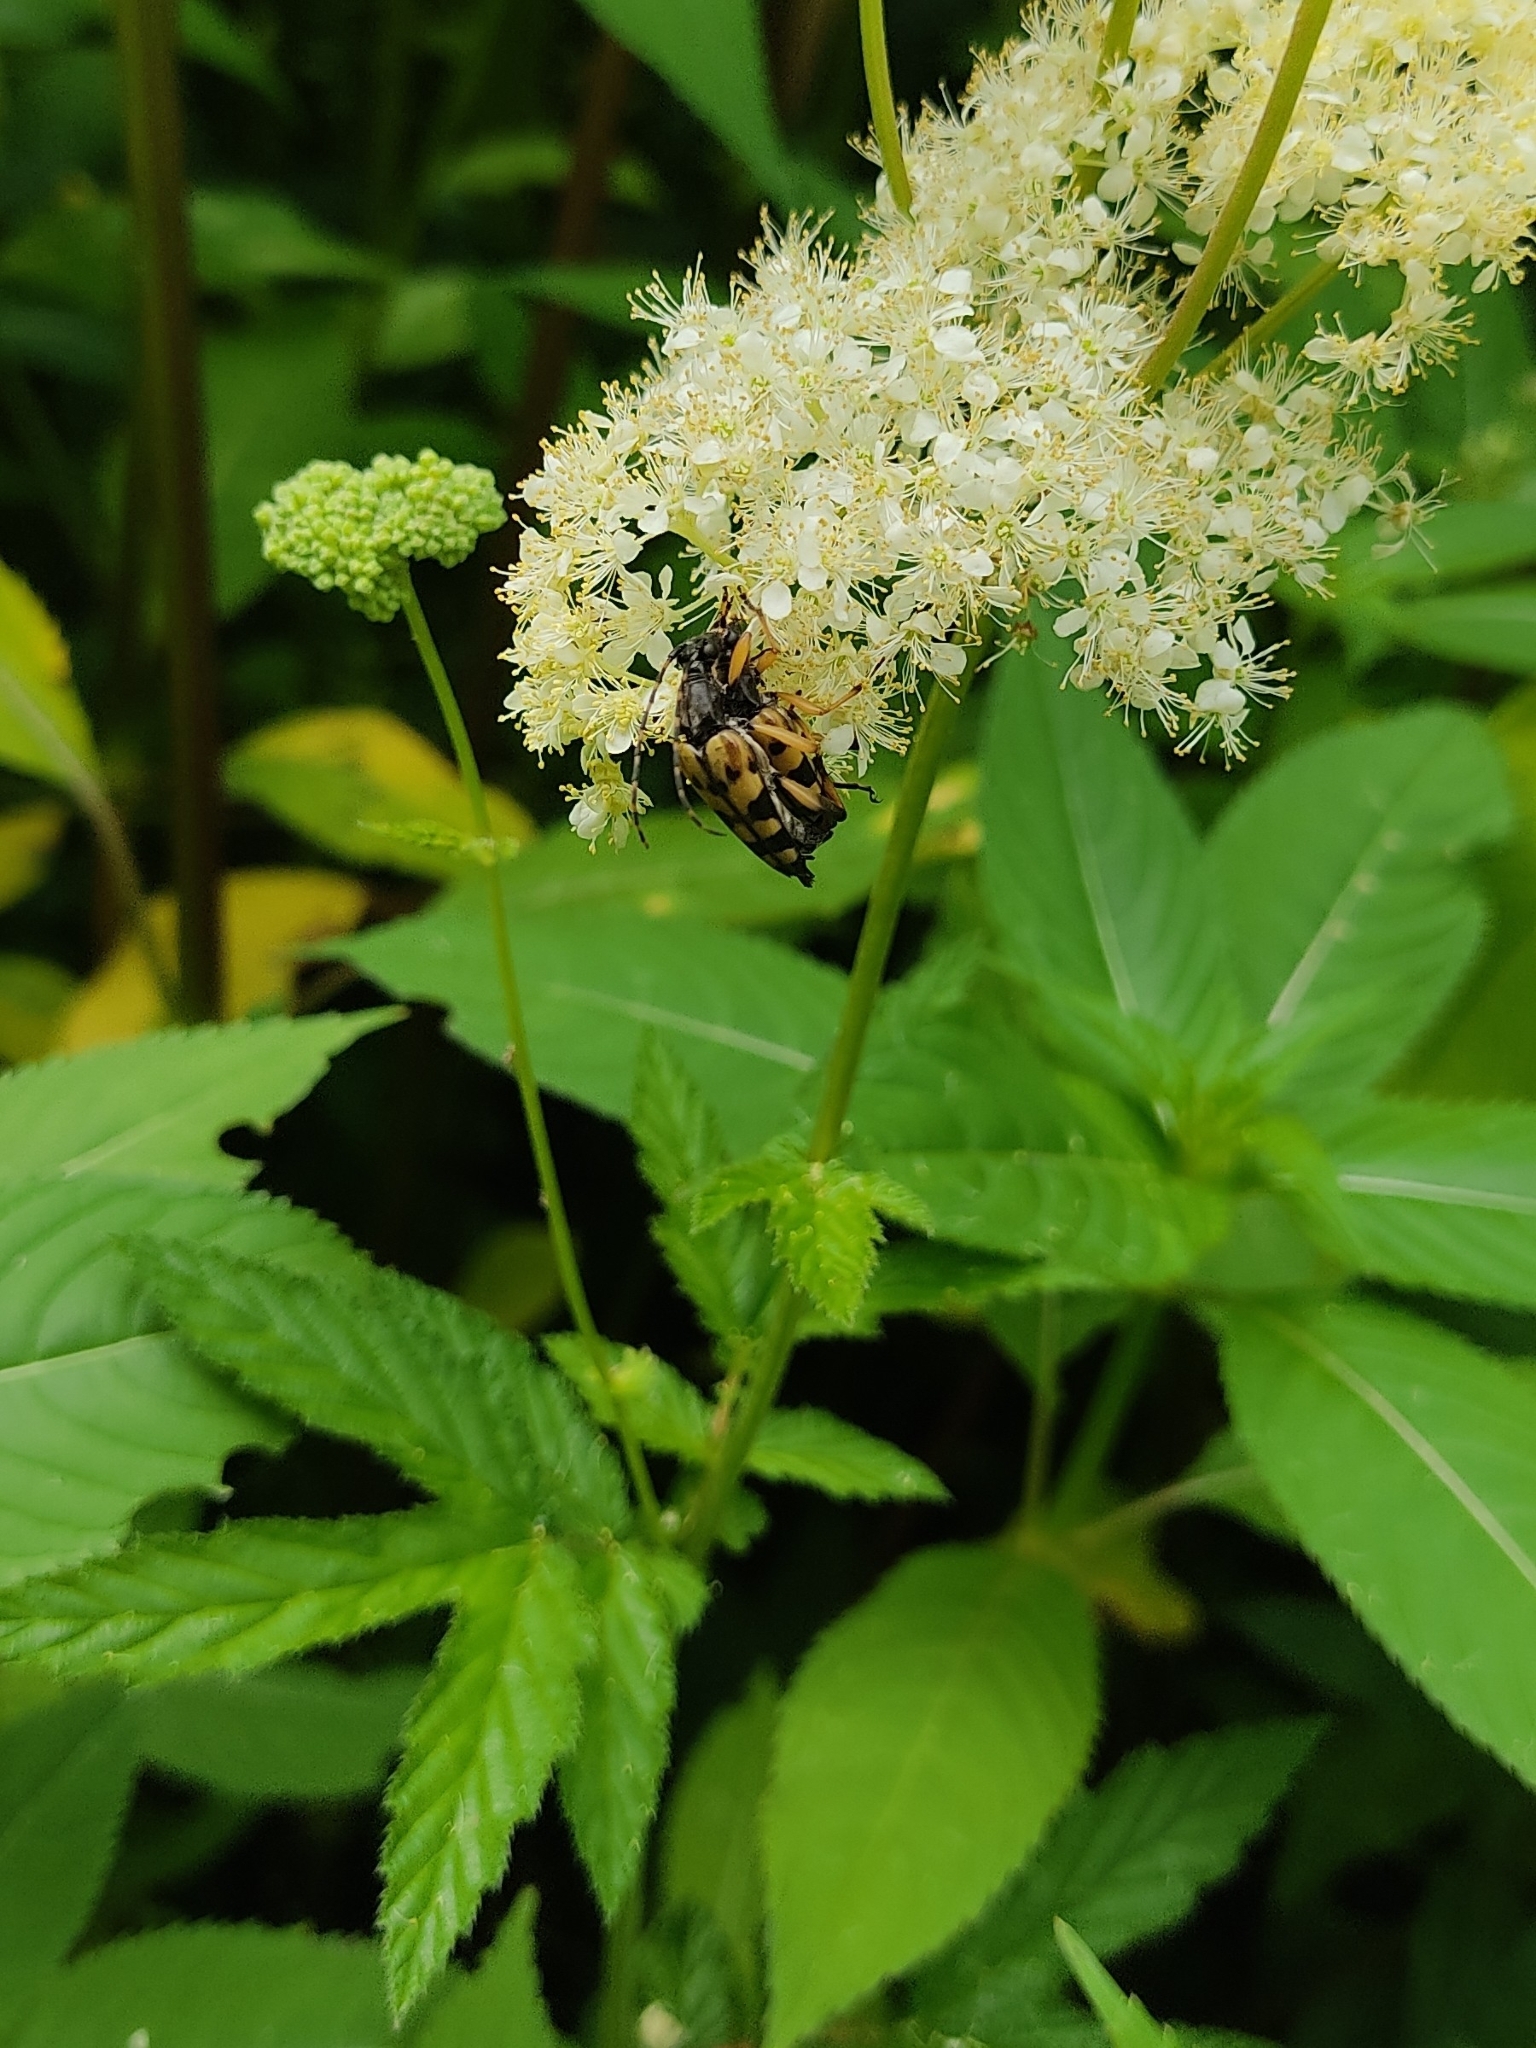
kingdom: Plantae
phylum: Tracheophyta
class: Magnoliopsida
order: Rosales
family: Rosaceae
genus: Filipendula
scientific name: Filipendula ulmaria
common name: Meadowsweet
